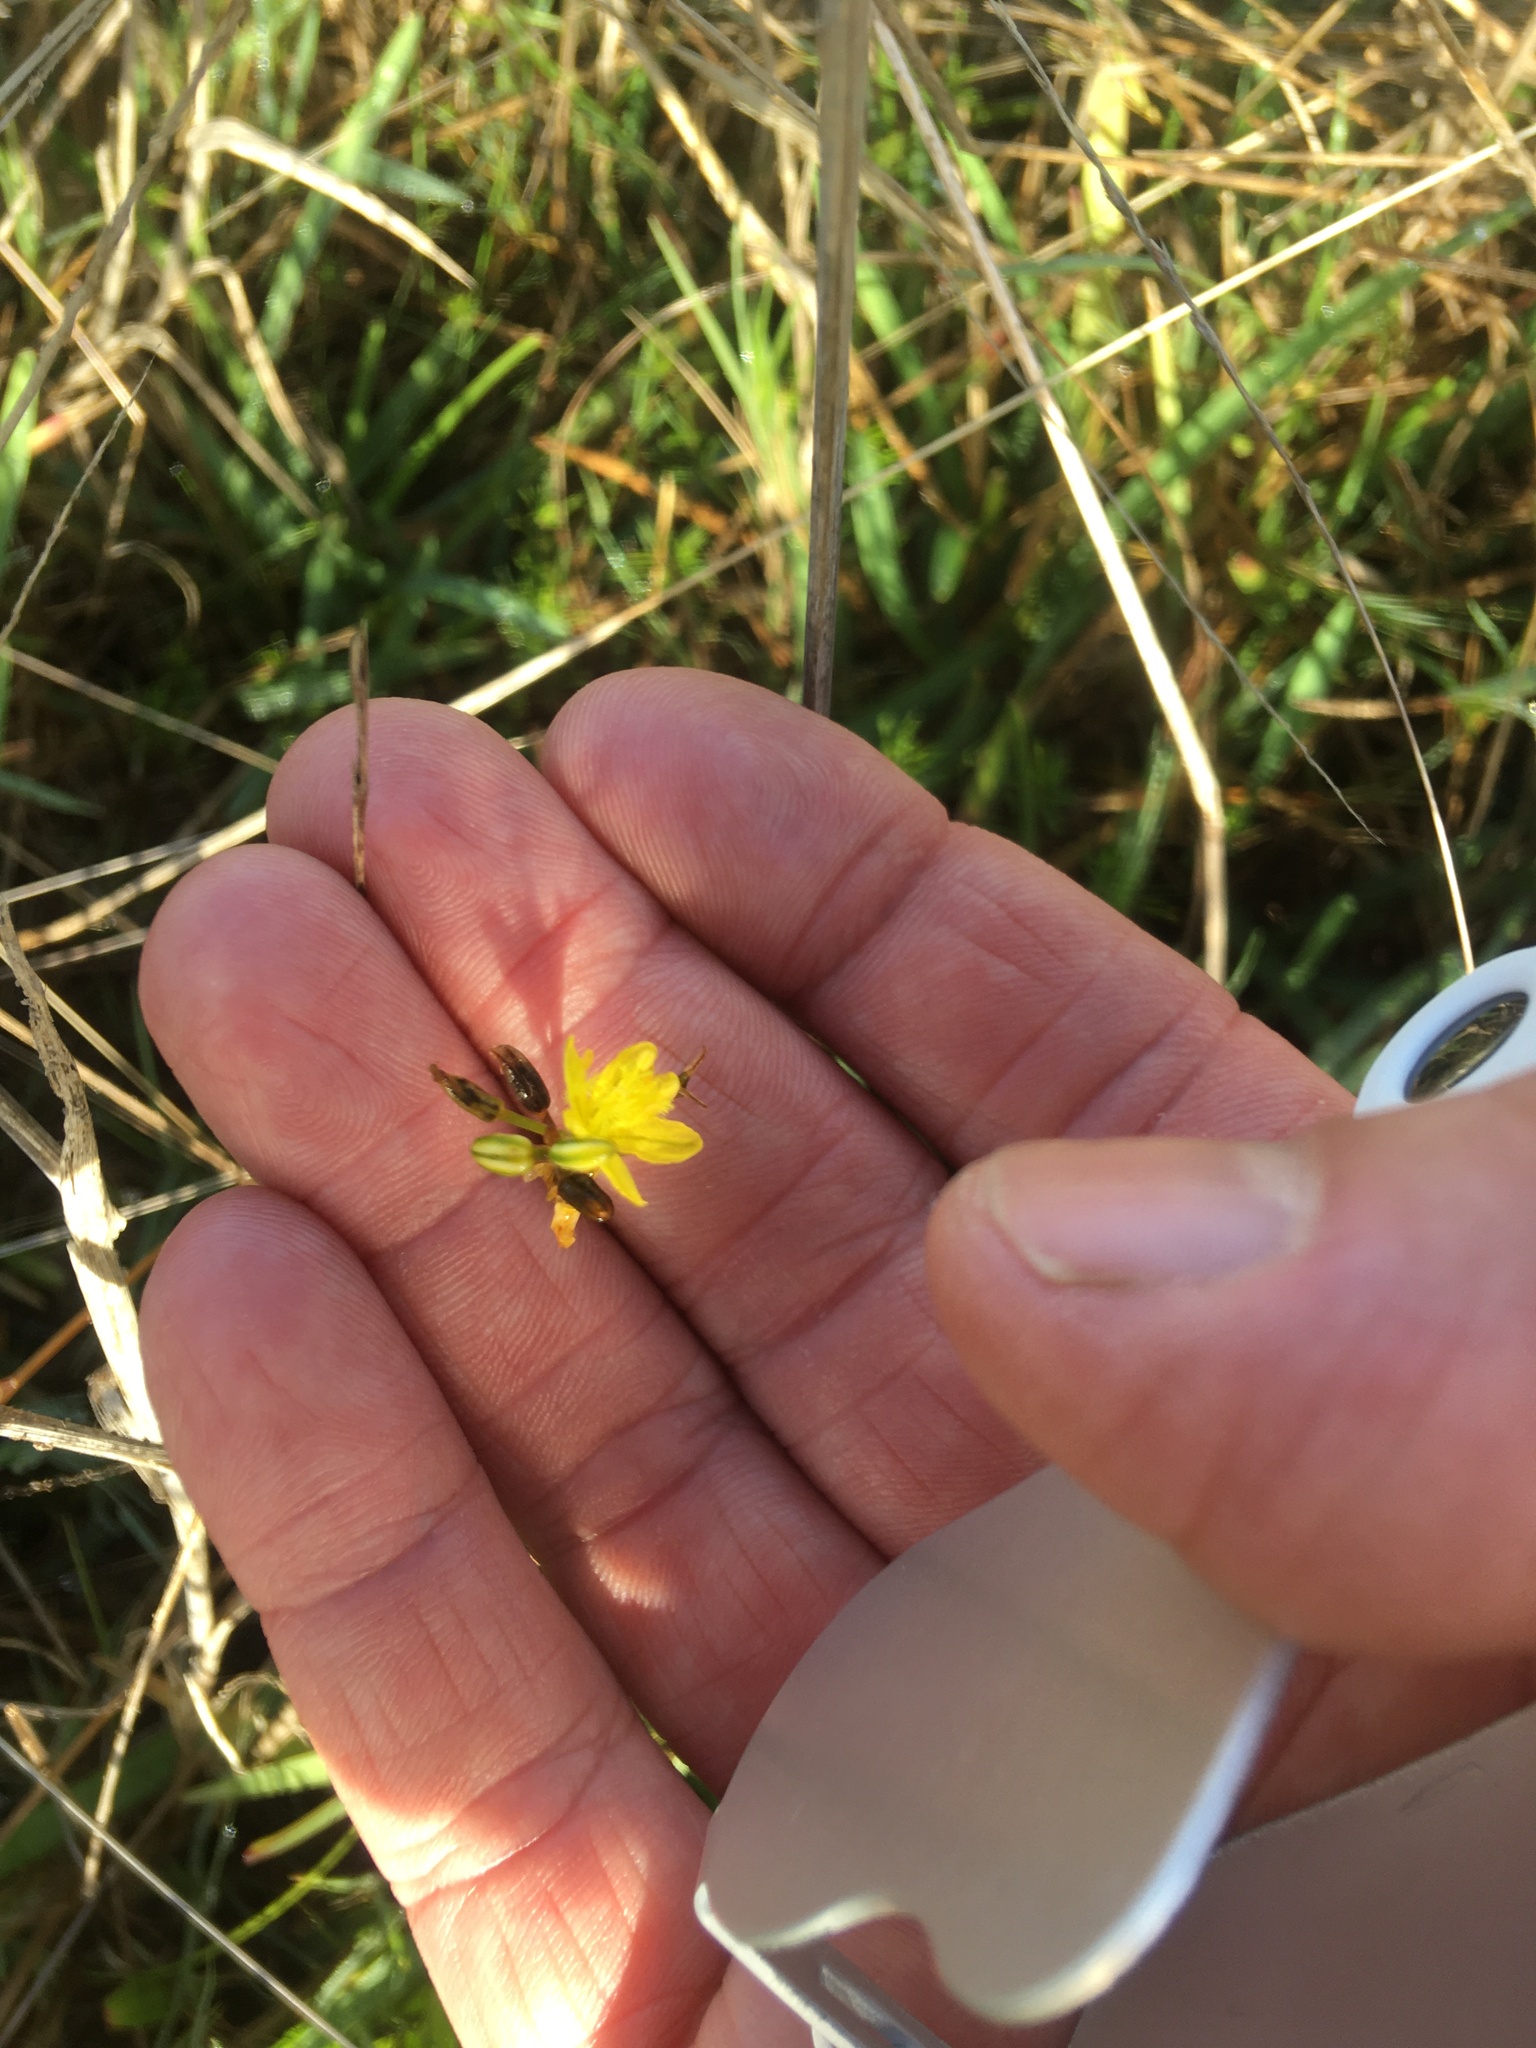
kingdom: Plantae
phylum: Tracheophyta
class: Liliopsida
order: Asparagales
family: Asphodelaceae
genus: Bulbine
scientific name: Bulbine favosa
